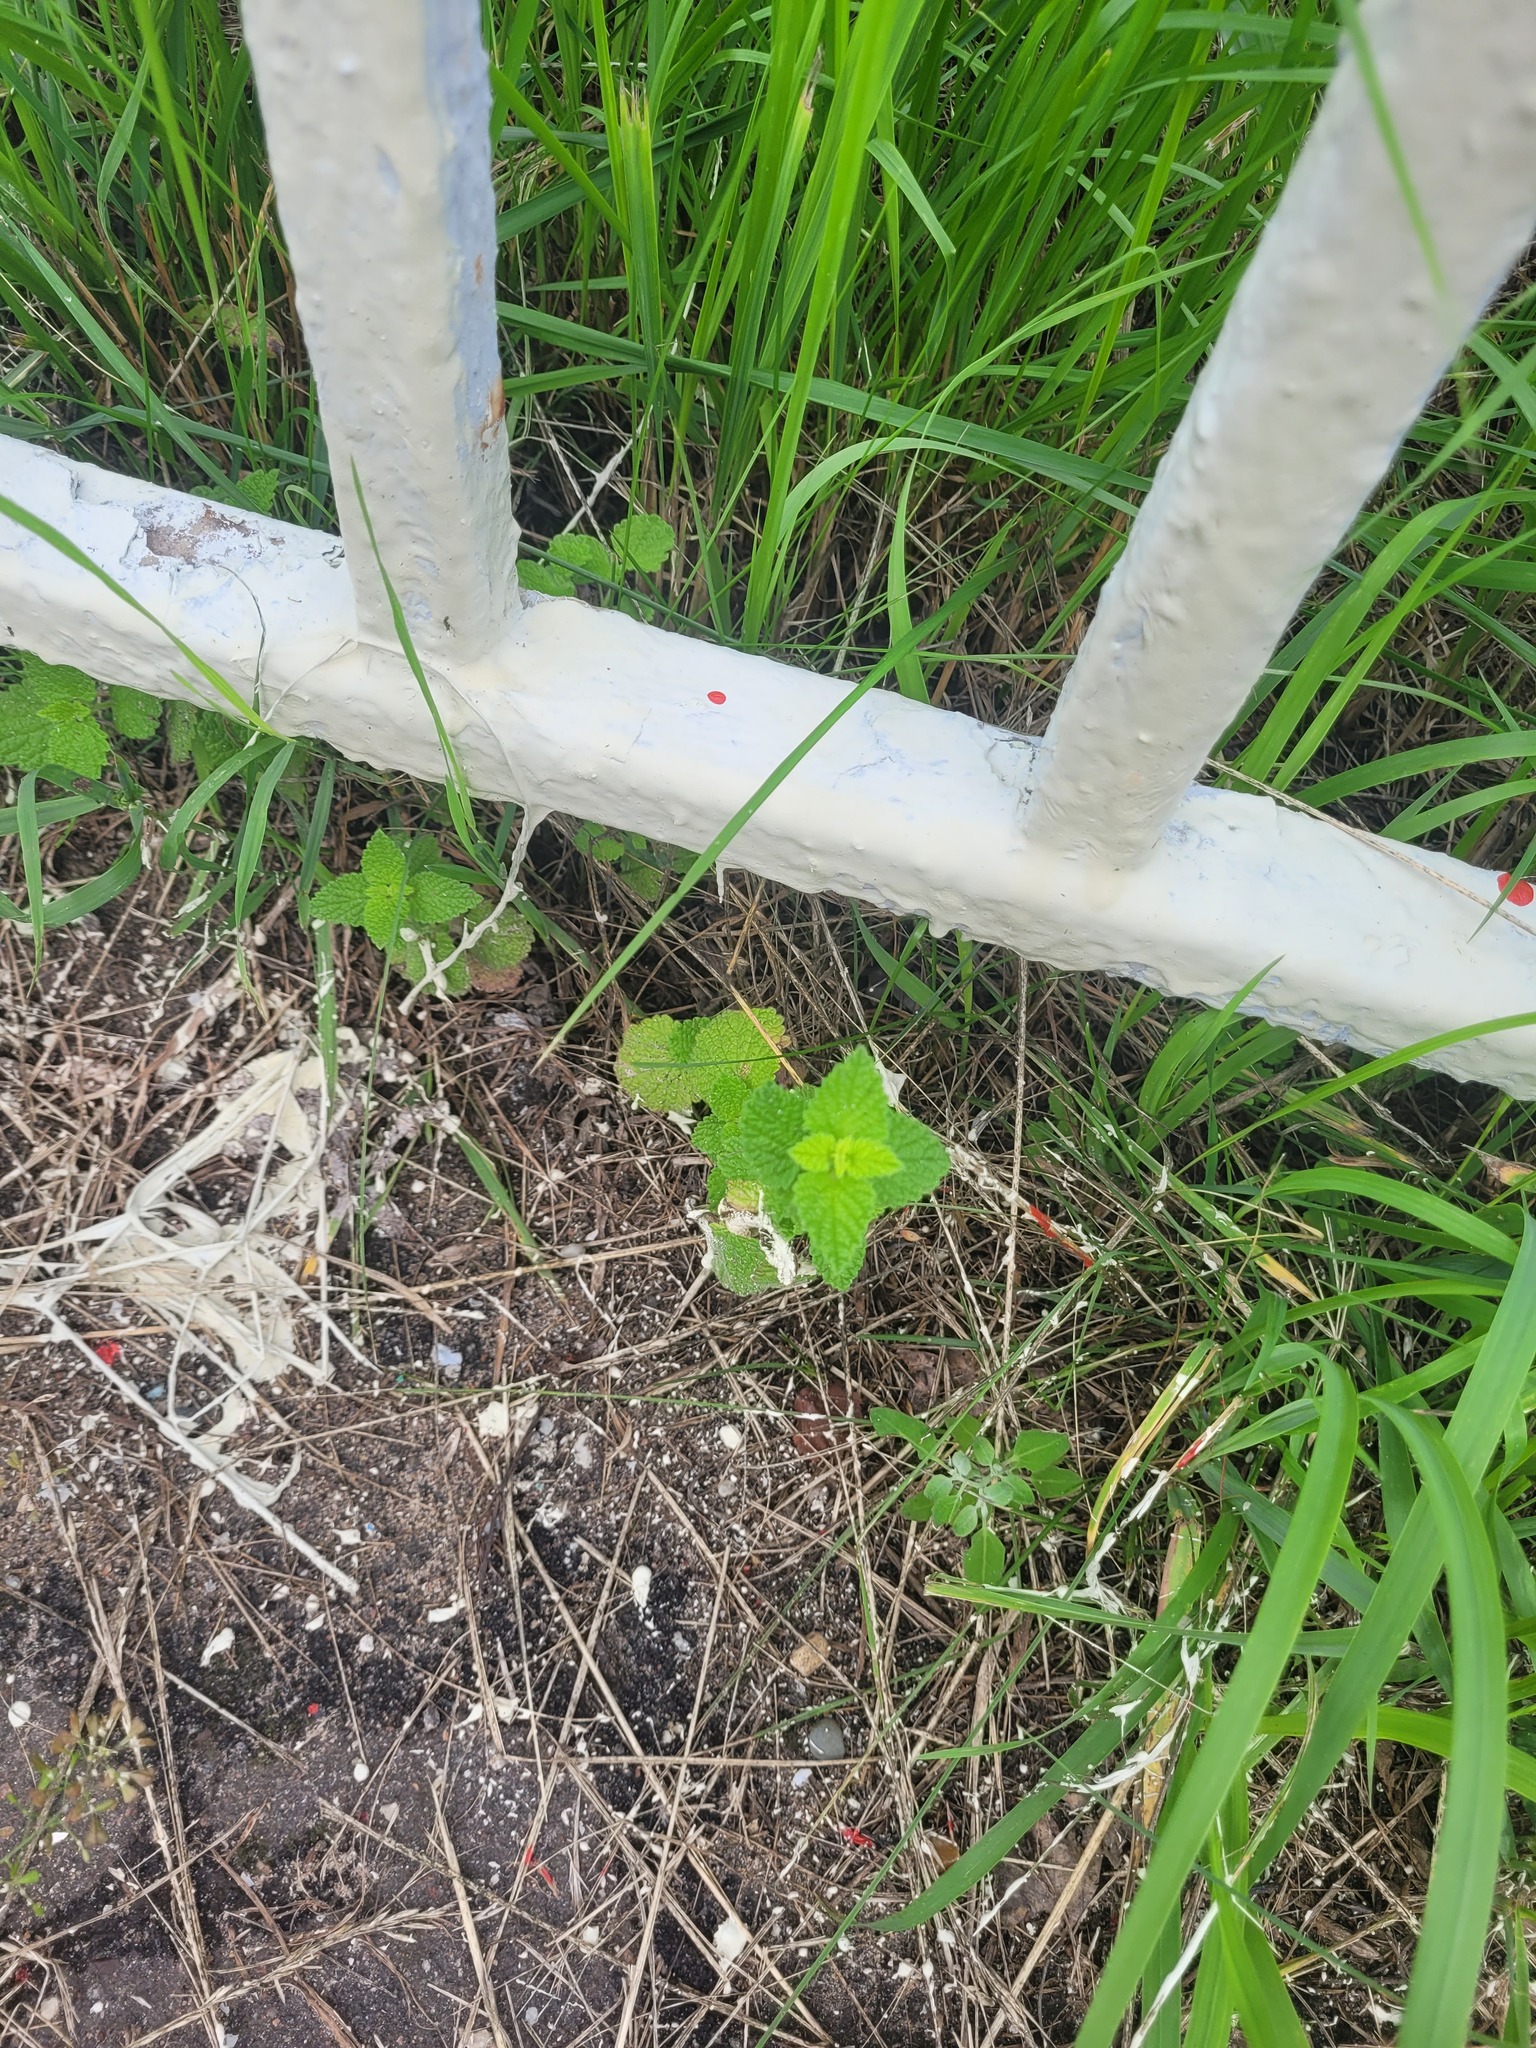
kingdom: Plantae
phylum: Tracheophyta
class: Magnoliopsida
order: Lamiales
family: Lamiaceae
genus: Ballota
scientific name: Ballota nigra
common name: Black horehound
